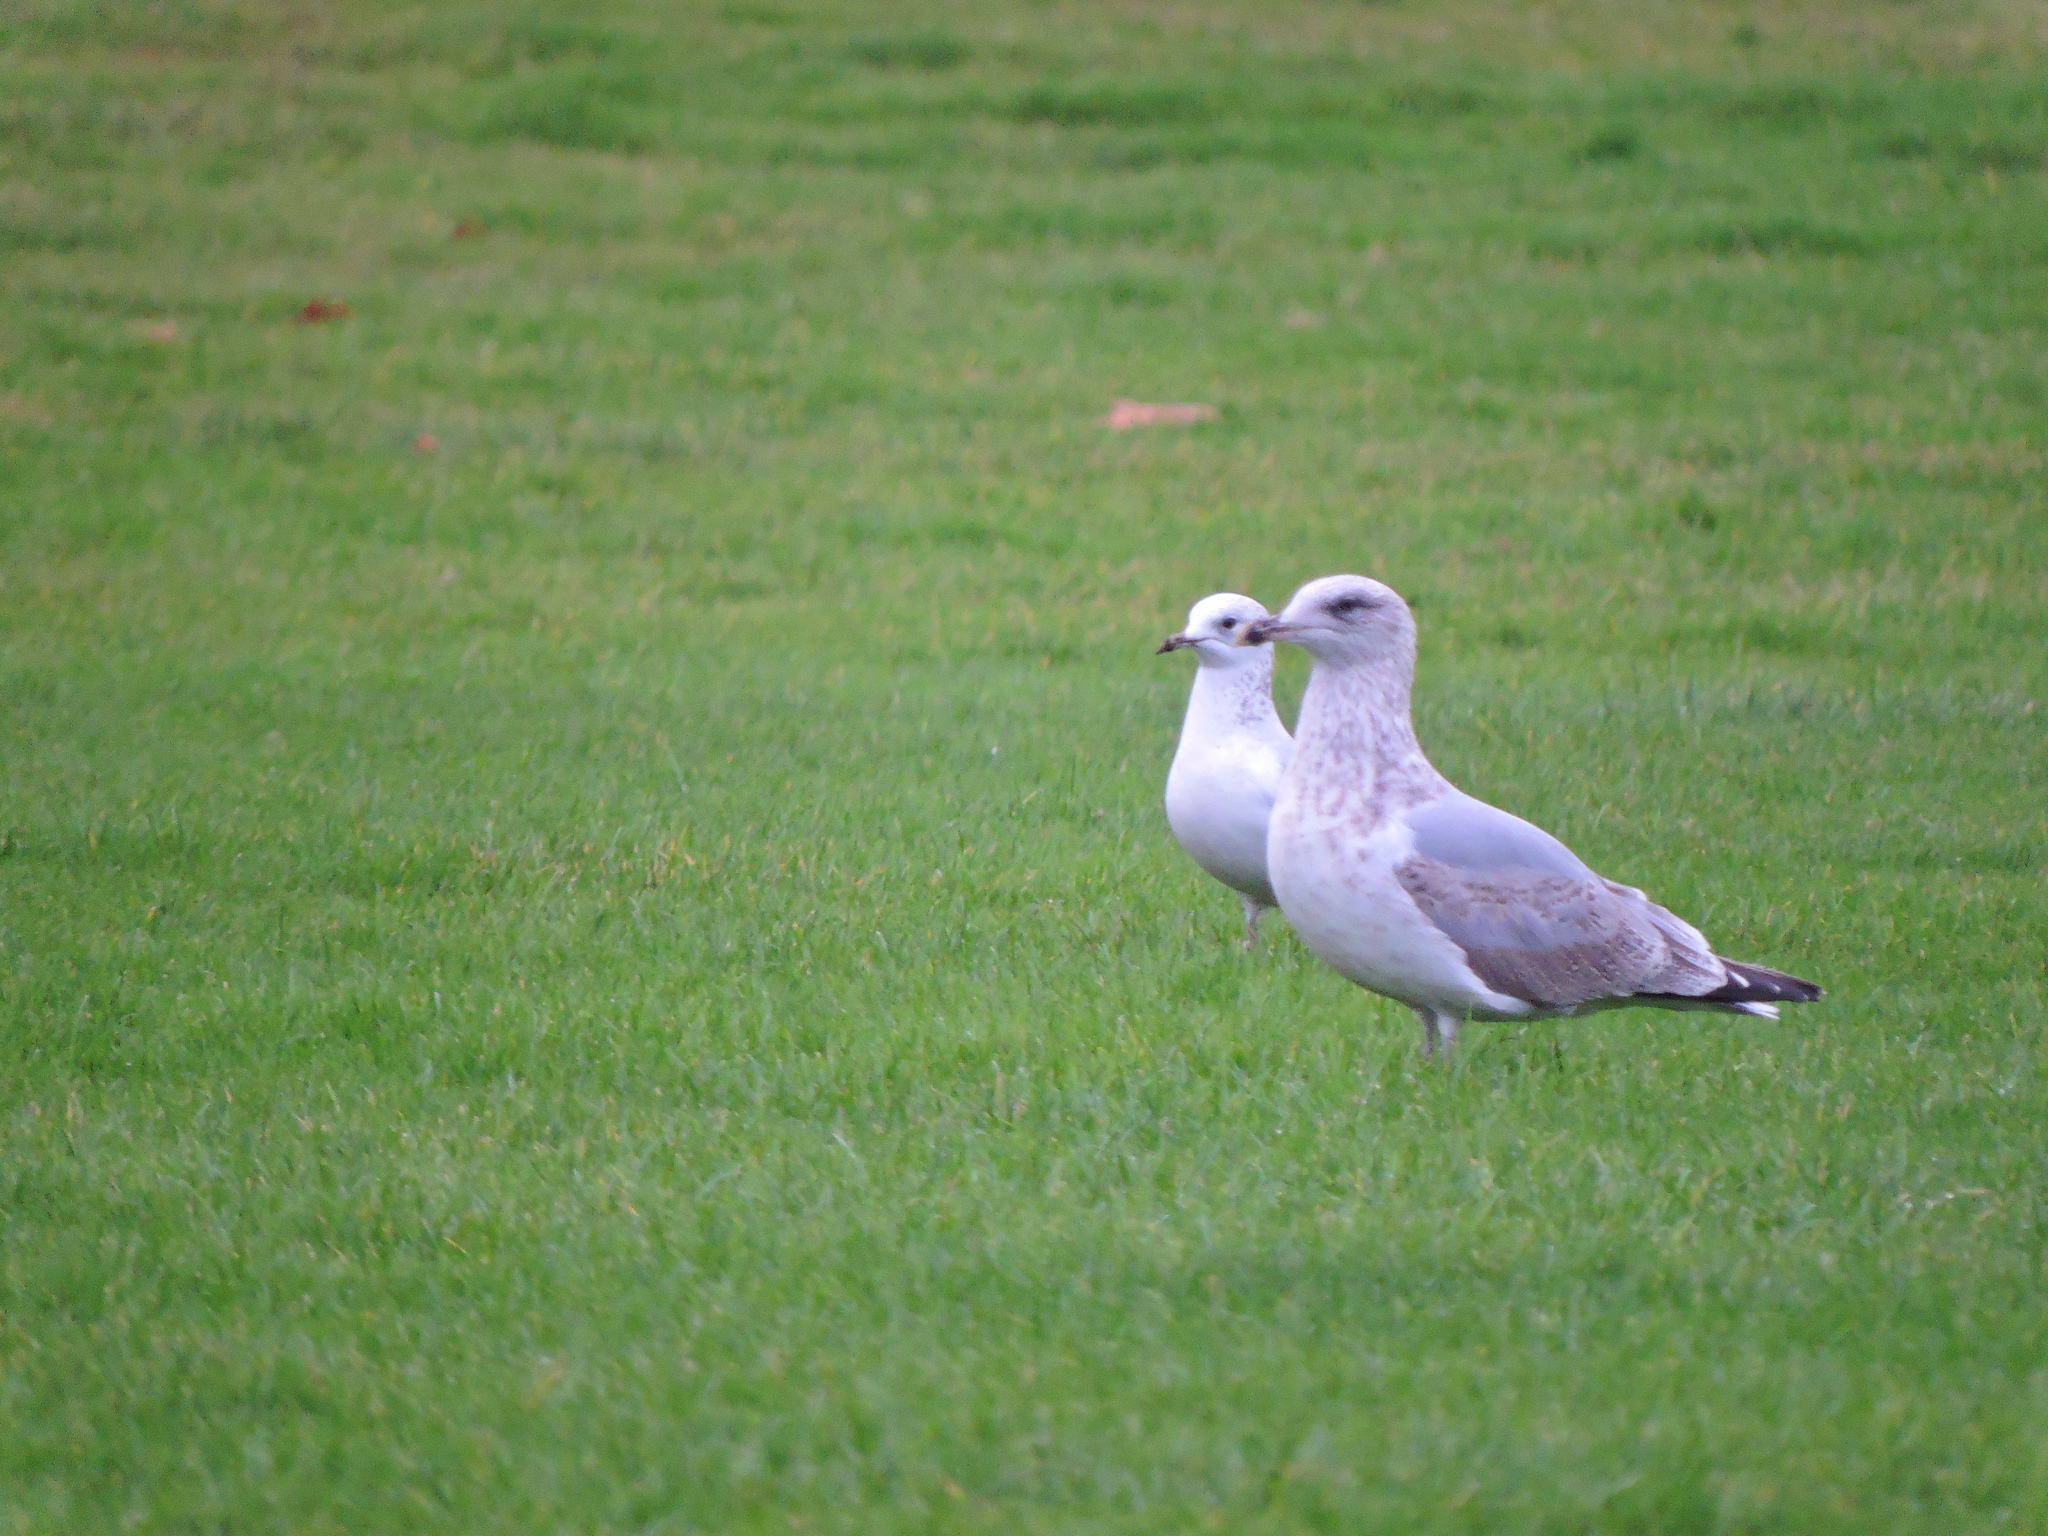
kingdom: Animalia
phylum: Chordata
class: Aves
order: Charadriiformes
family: Laridae
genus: Larus
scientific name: Larus argentatus
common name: Herring gull
